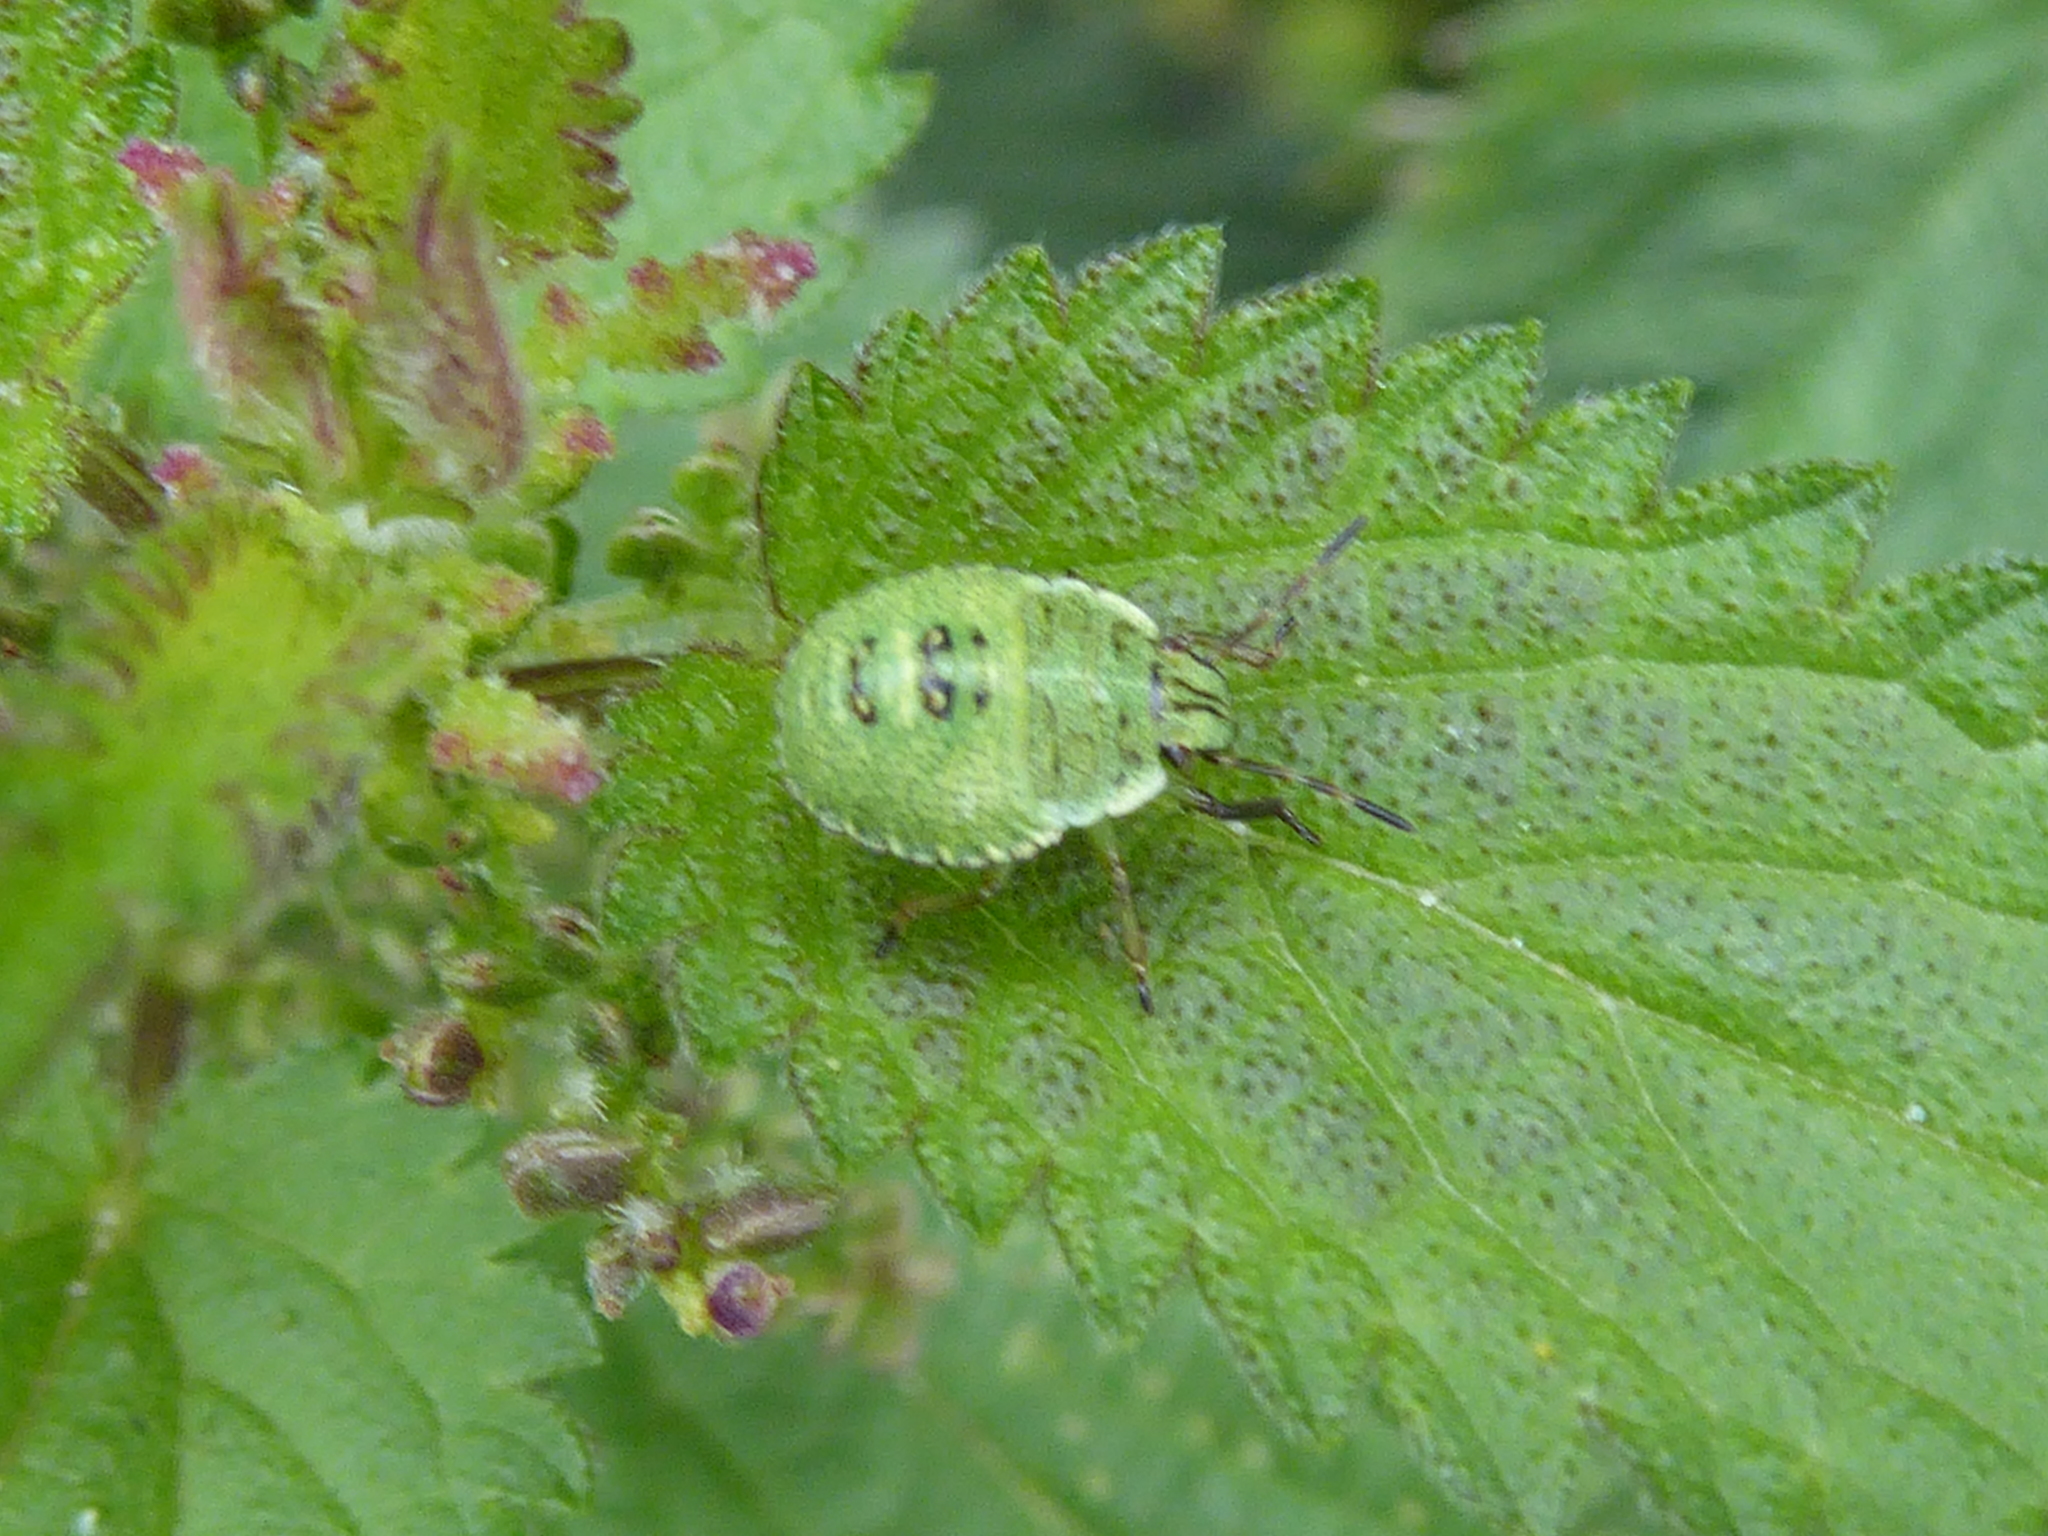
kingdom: Animalia
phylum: Arthropoda
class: Insecta
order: Hemiptera
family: Pentatomidae
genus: Palomena
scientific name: Palomena prasina
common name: Green shieldbug
